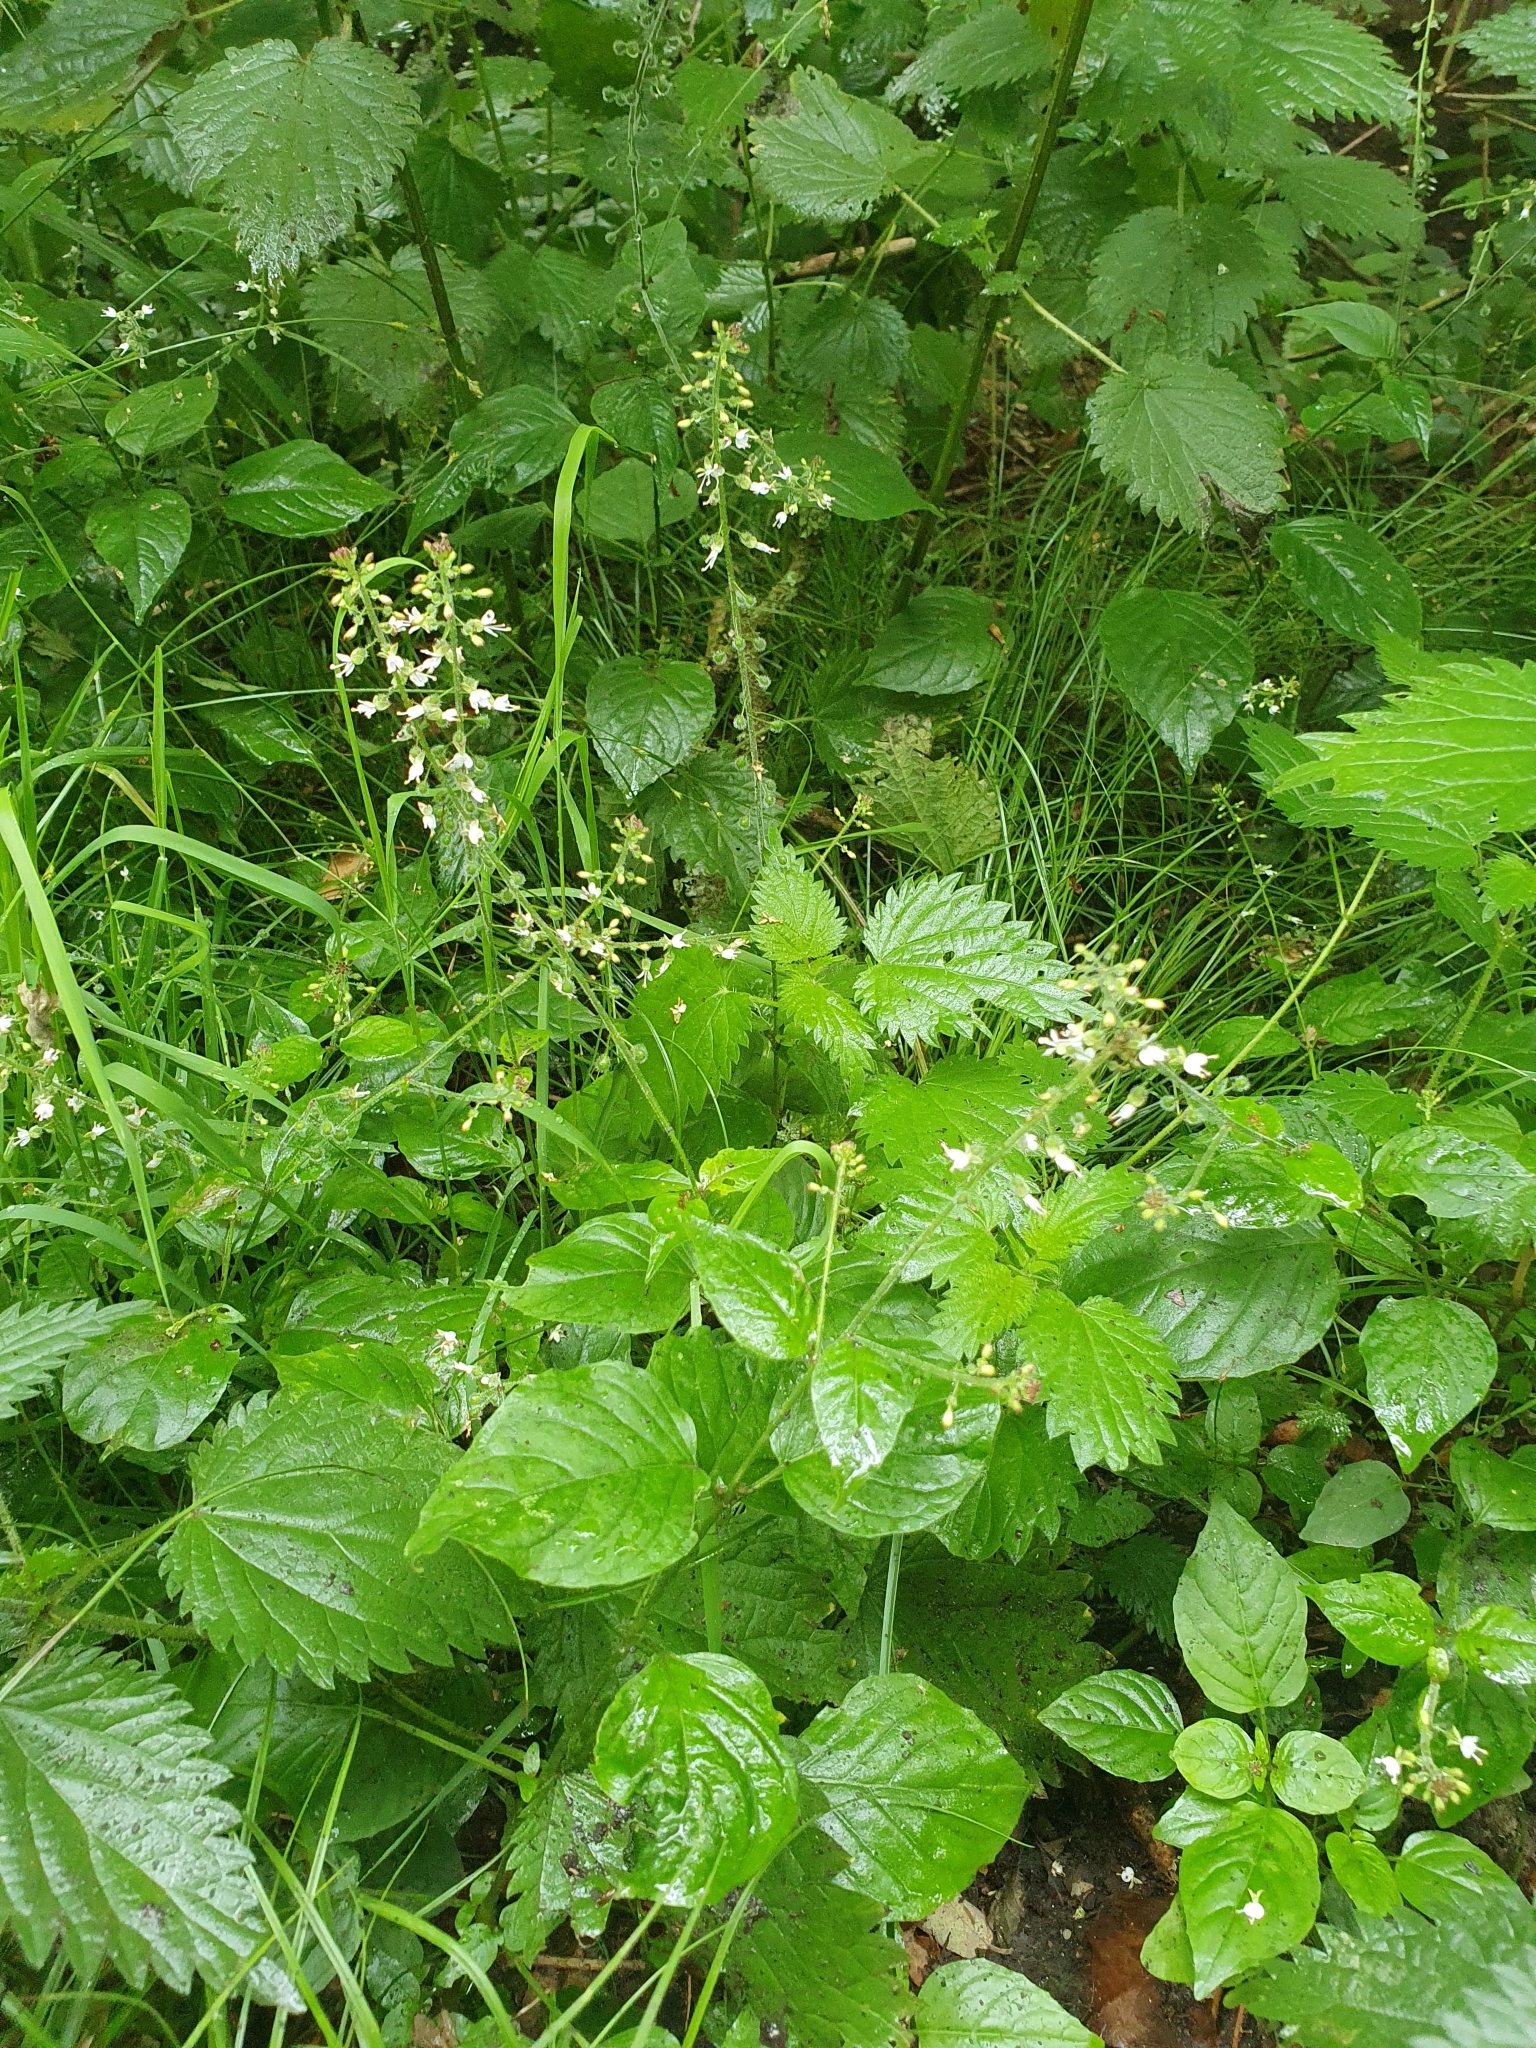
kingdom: Plantae
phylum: Tracheophyta
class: Magnoliopsida
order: Myrtales
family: Onagraceae
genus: Circaea
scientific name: Circaea lutetiana
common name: Enchanter's-nightshade
